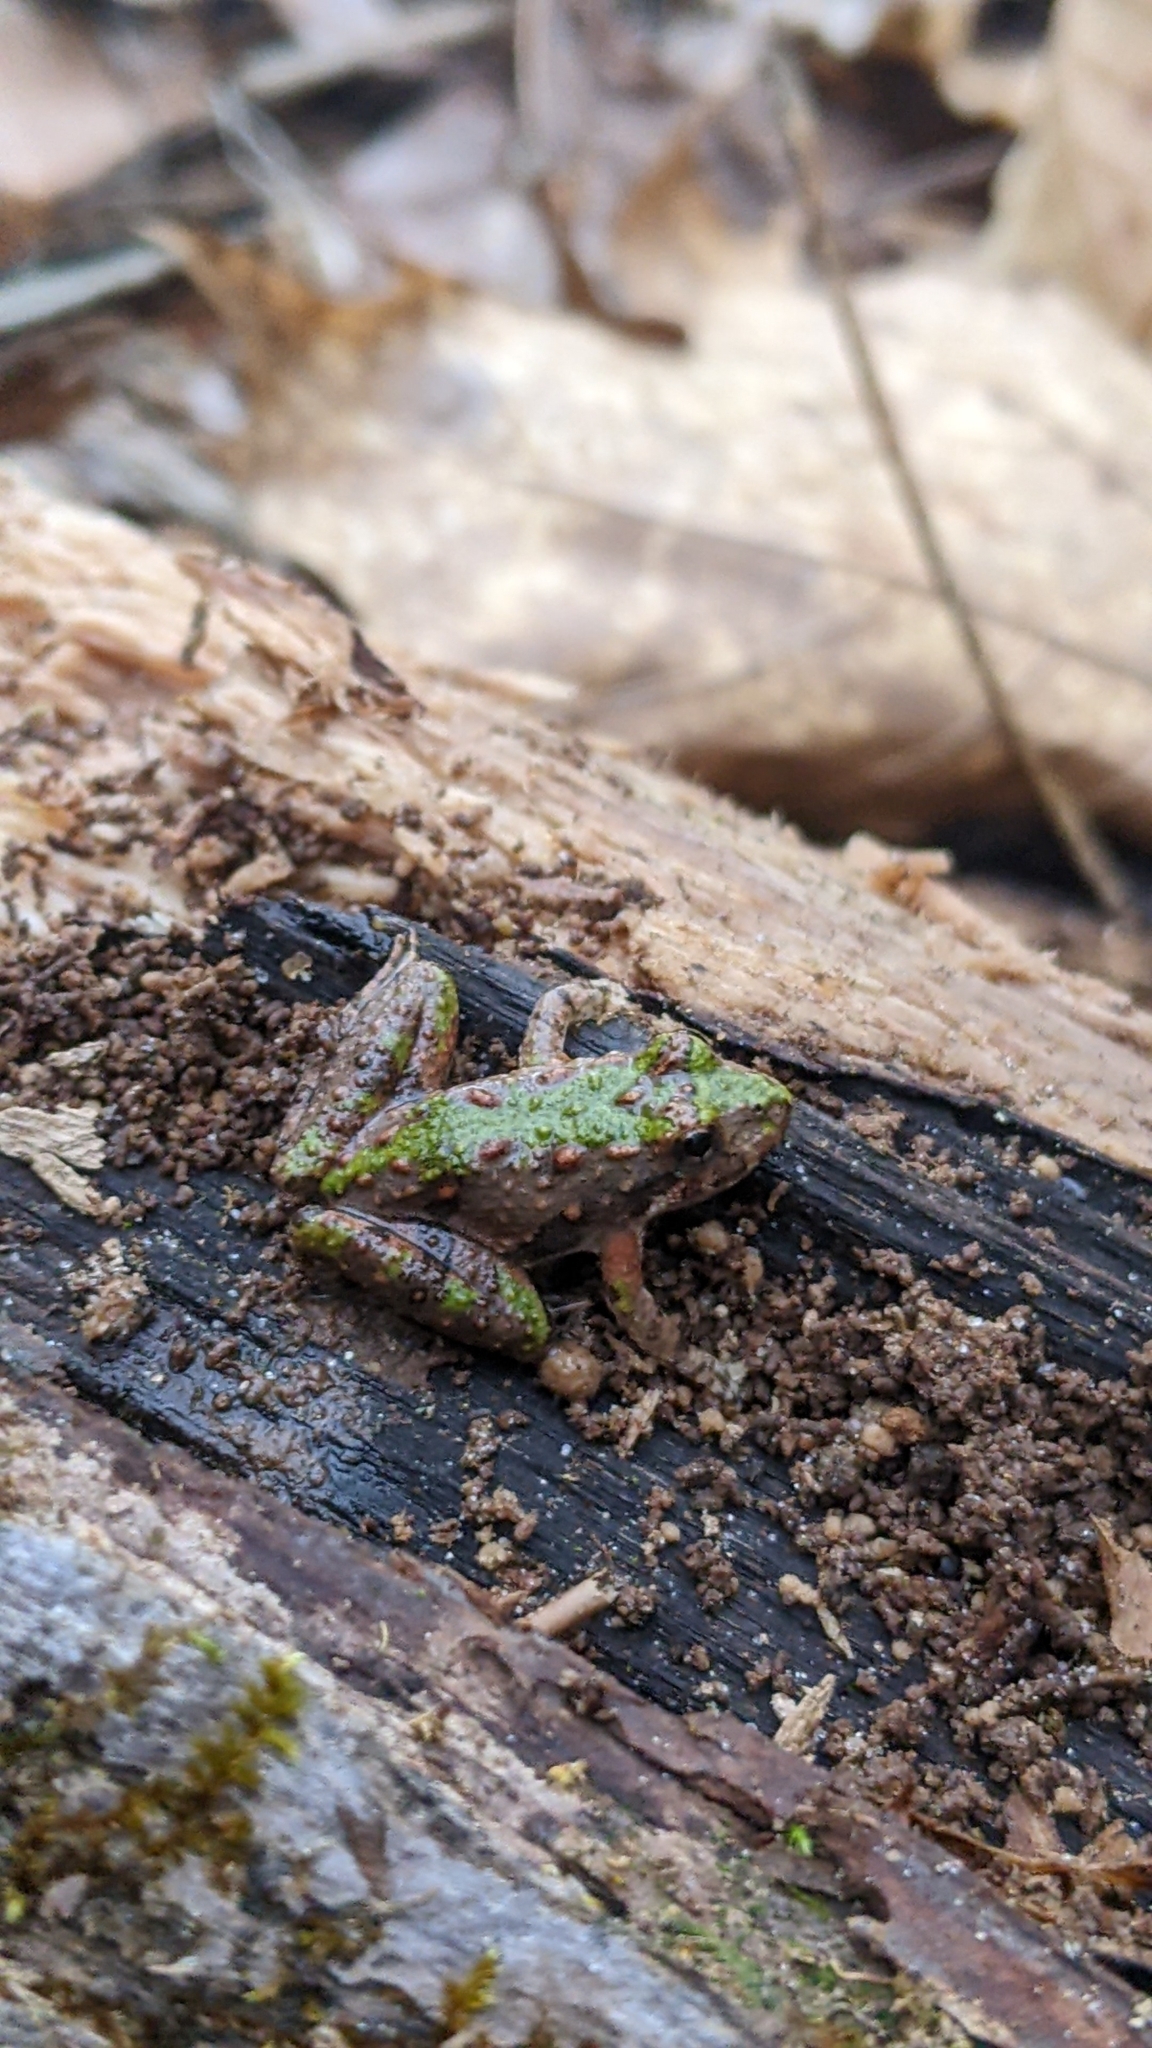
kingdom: Animalia
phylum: Chordata
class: Amphibia
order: Anura
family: Hylidae
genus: Acris
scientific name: Acris crepitans
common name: Northern cricket frog
